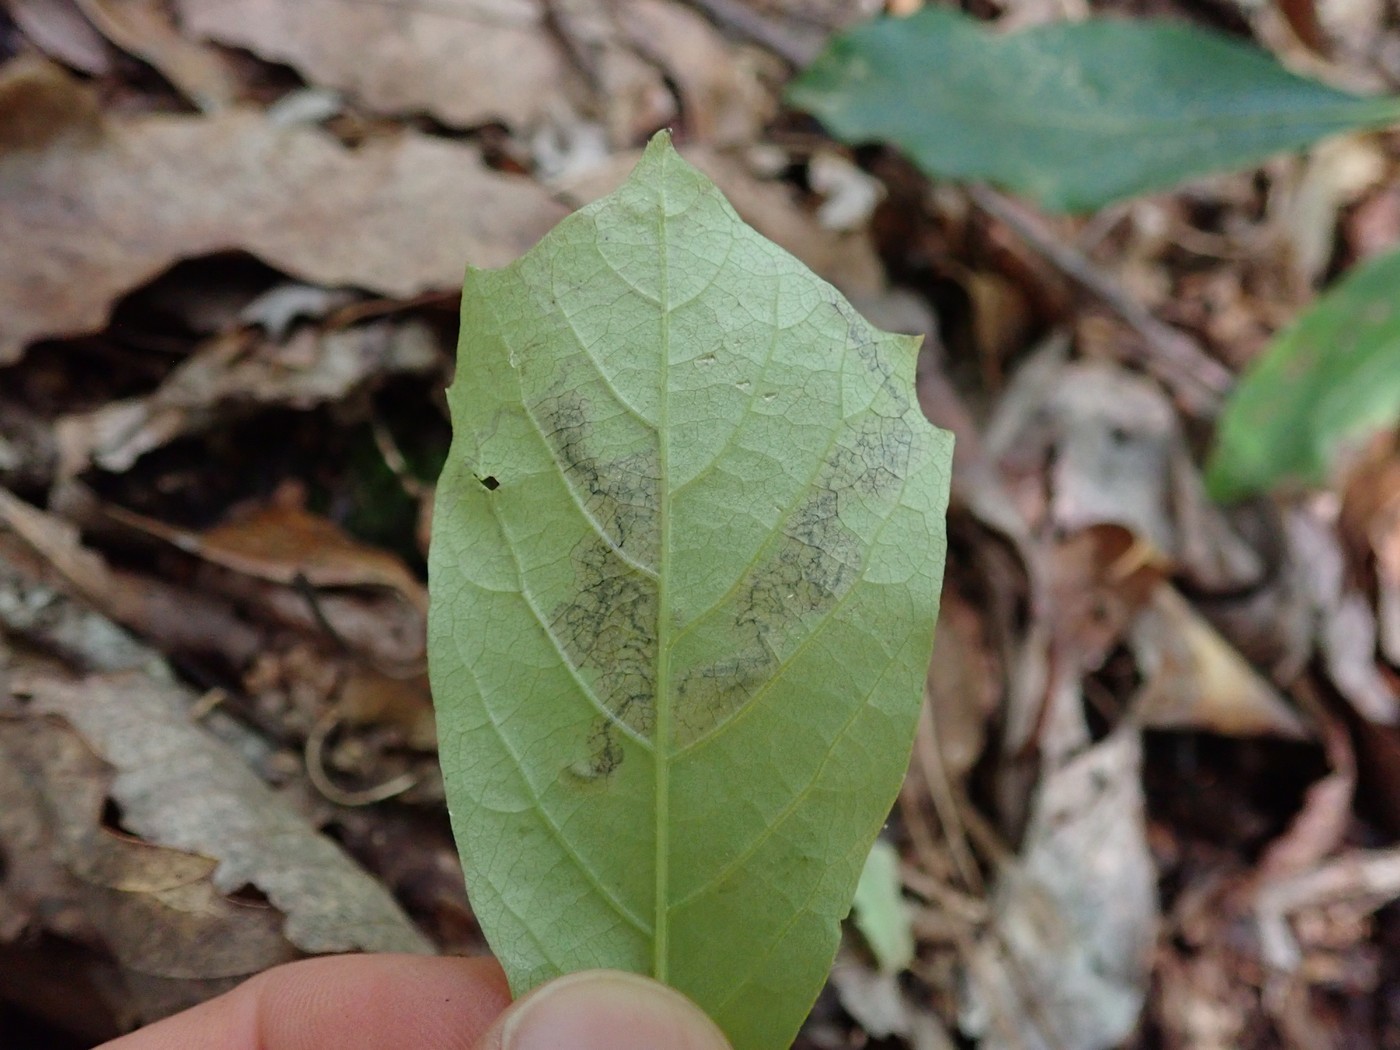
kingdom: Animalia
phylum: Arthropoda
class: Insecta
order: Lepidoptera
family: Nepticulidae
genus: Ectoedemia
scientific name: Ectoedemia nyssaefoliella
